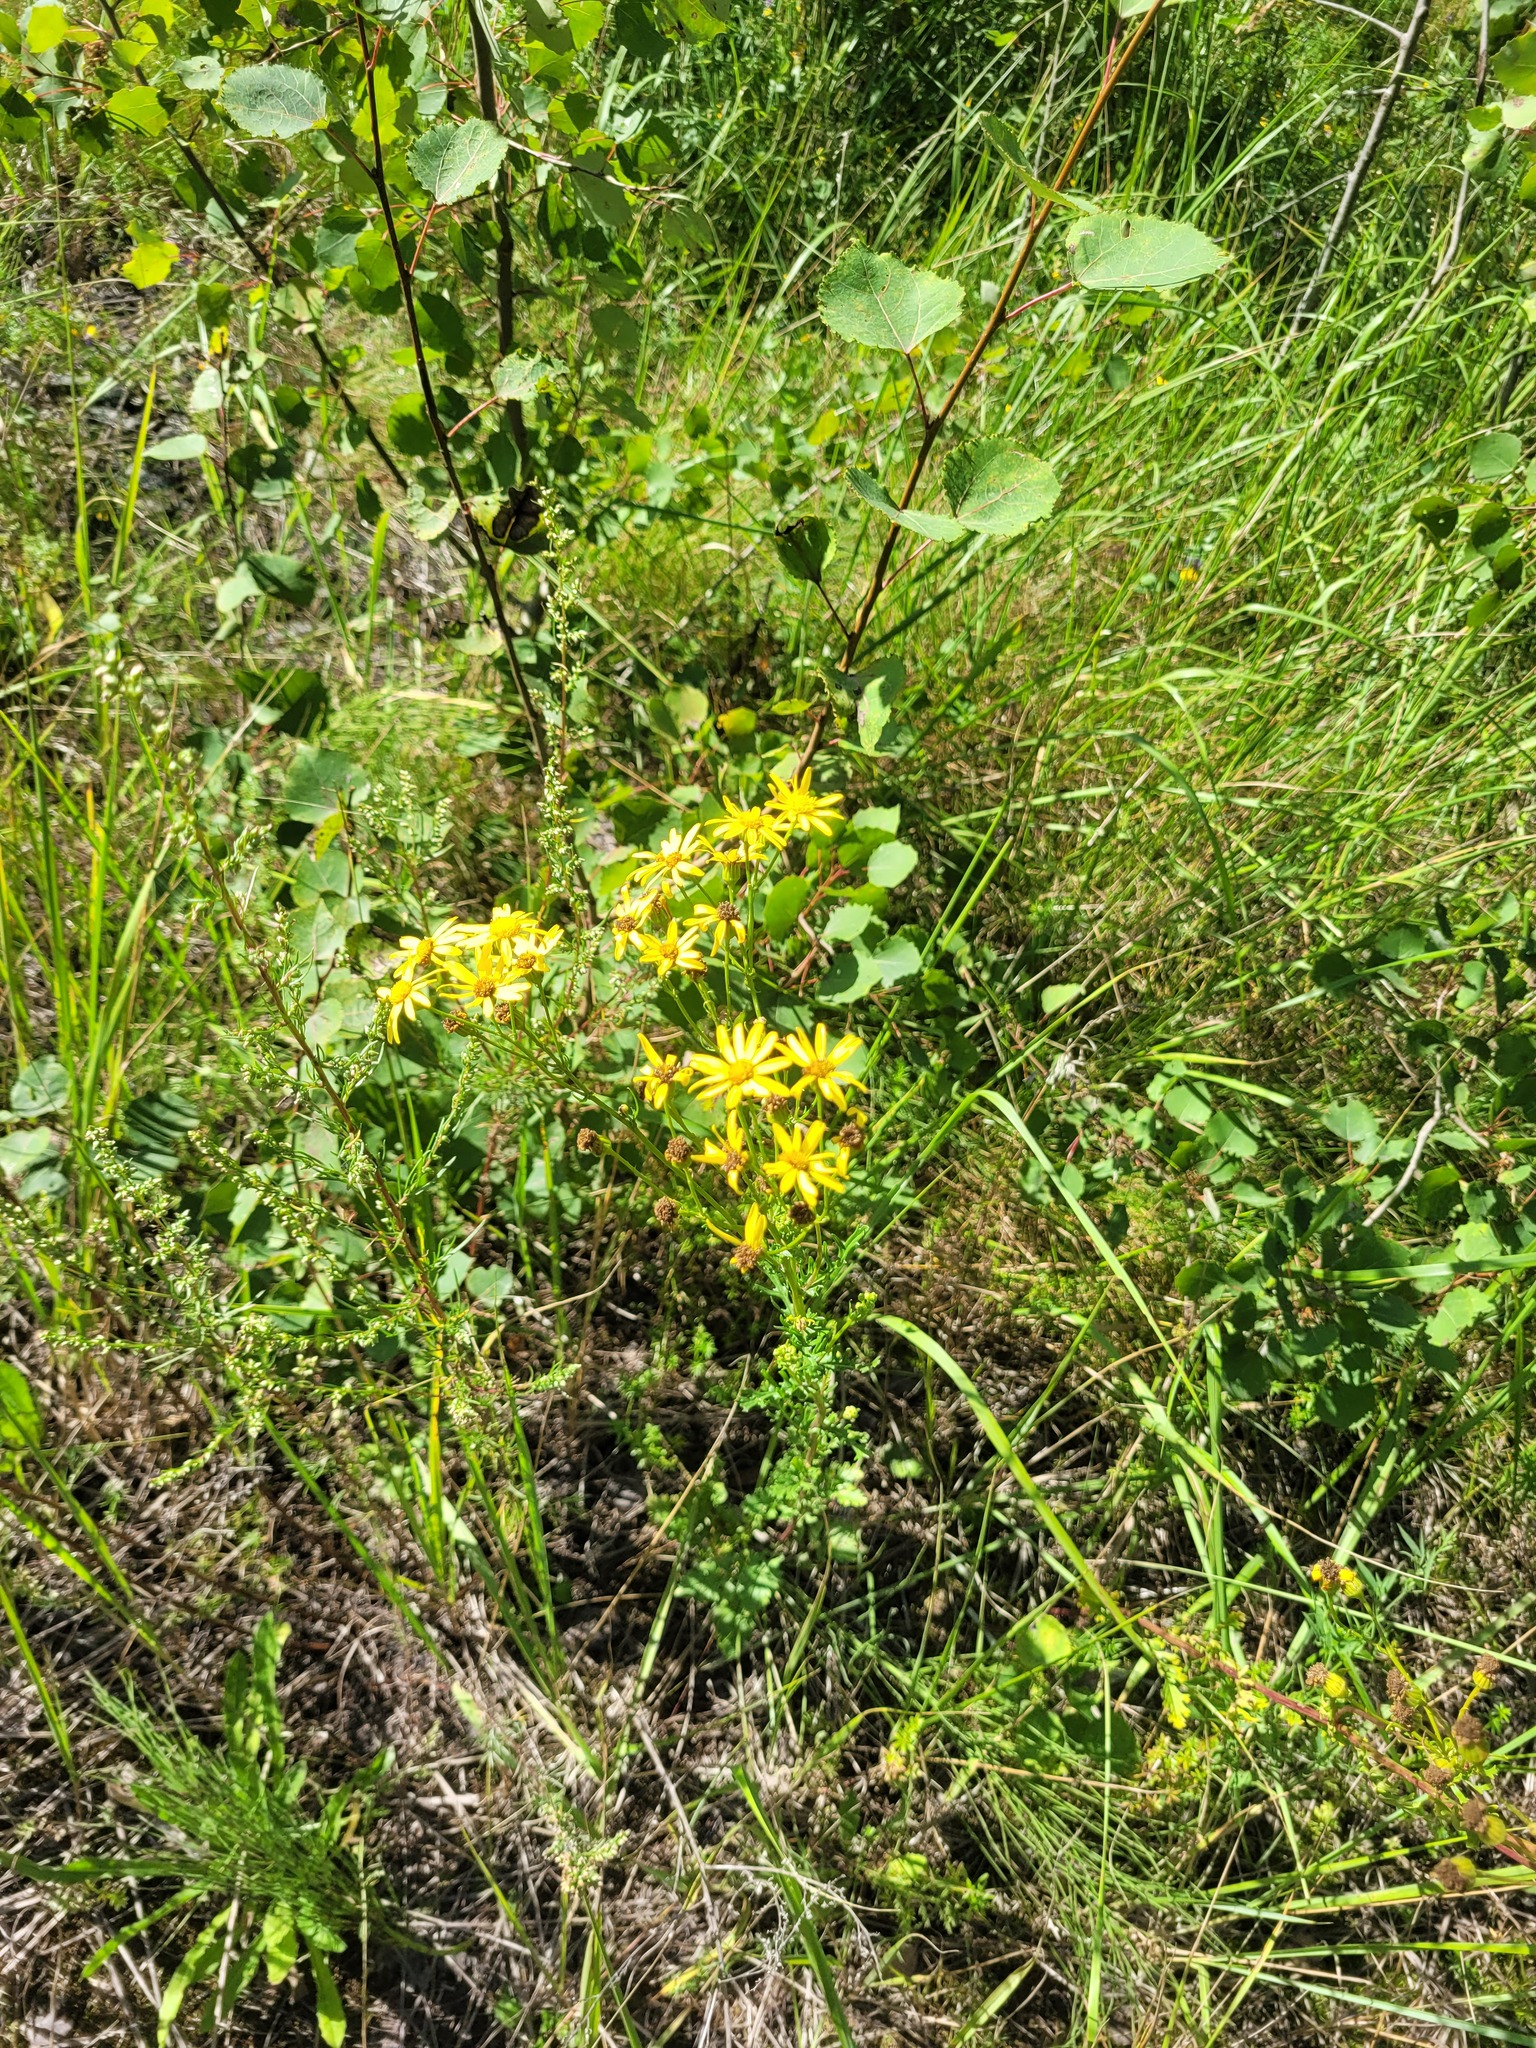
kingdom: Plantae
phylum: Tracheophyta
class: Magnoliopsida
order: Asterales
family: Asteraceae
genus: Jacobaea
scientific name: Jacobaea vulgaris
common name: Stinking willie
